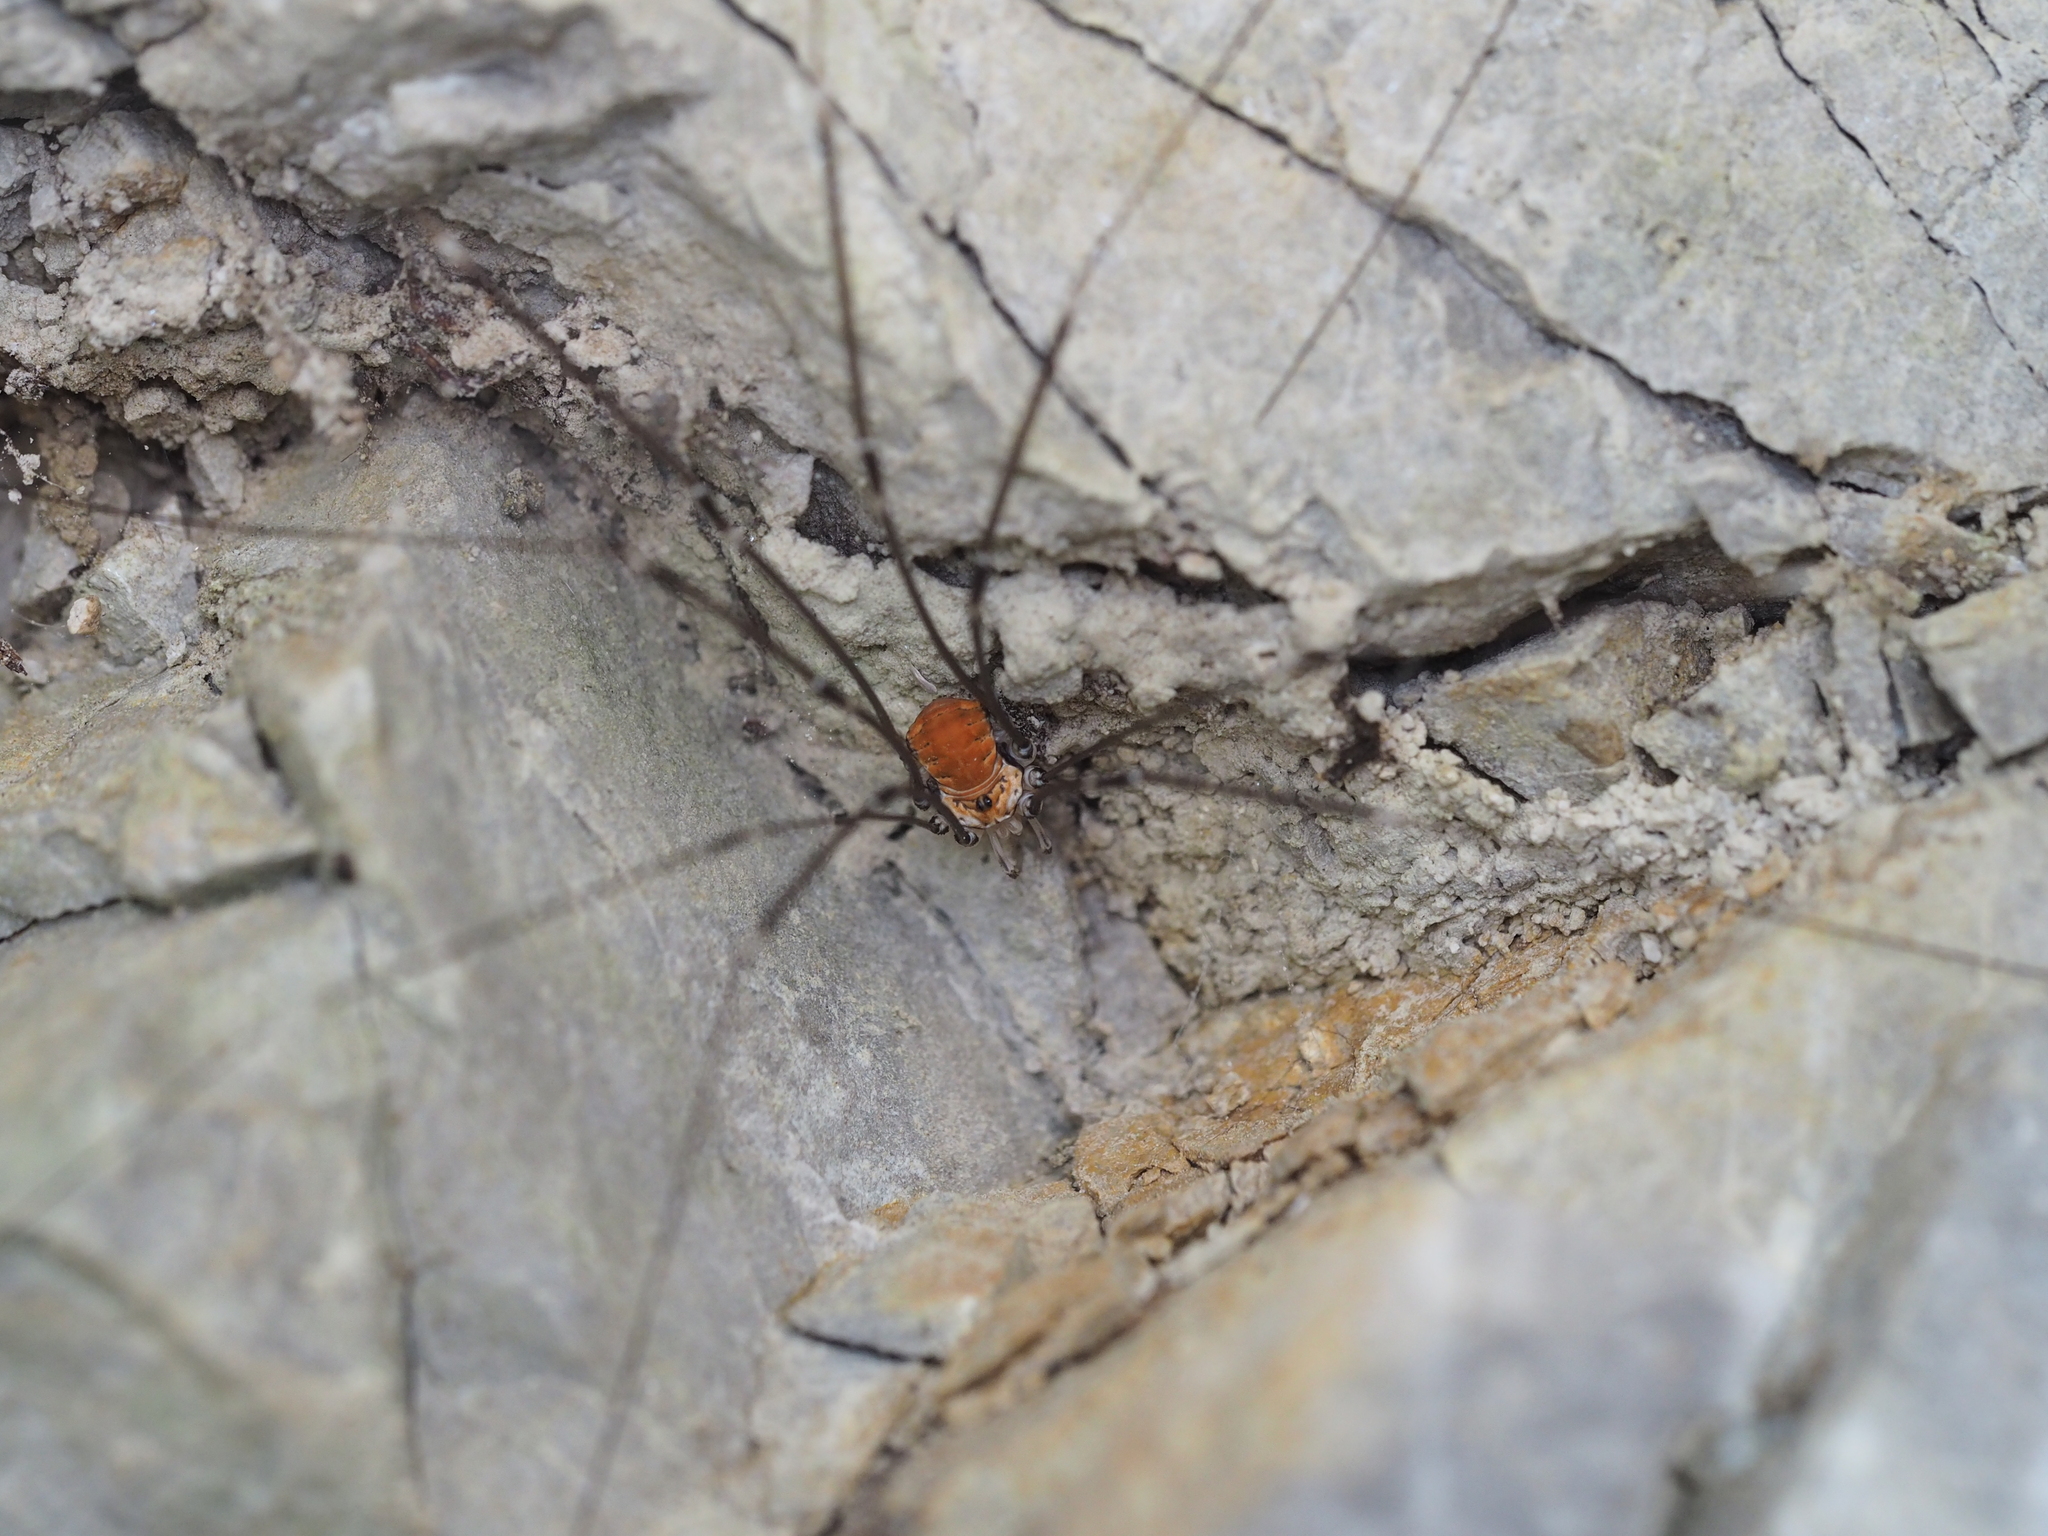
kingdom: Animalia
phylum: Arthropoda
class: Arachnida
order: Opiliones
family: Sclerosomatidae
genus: Leiobunum
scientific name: Leiobunum limbatum
